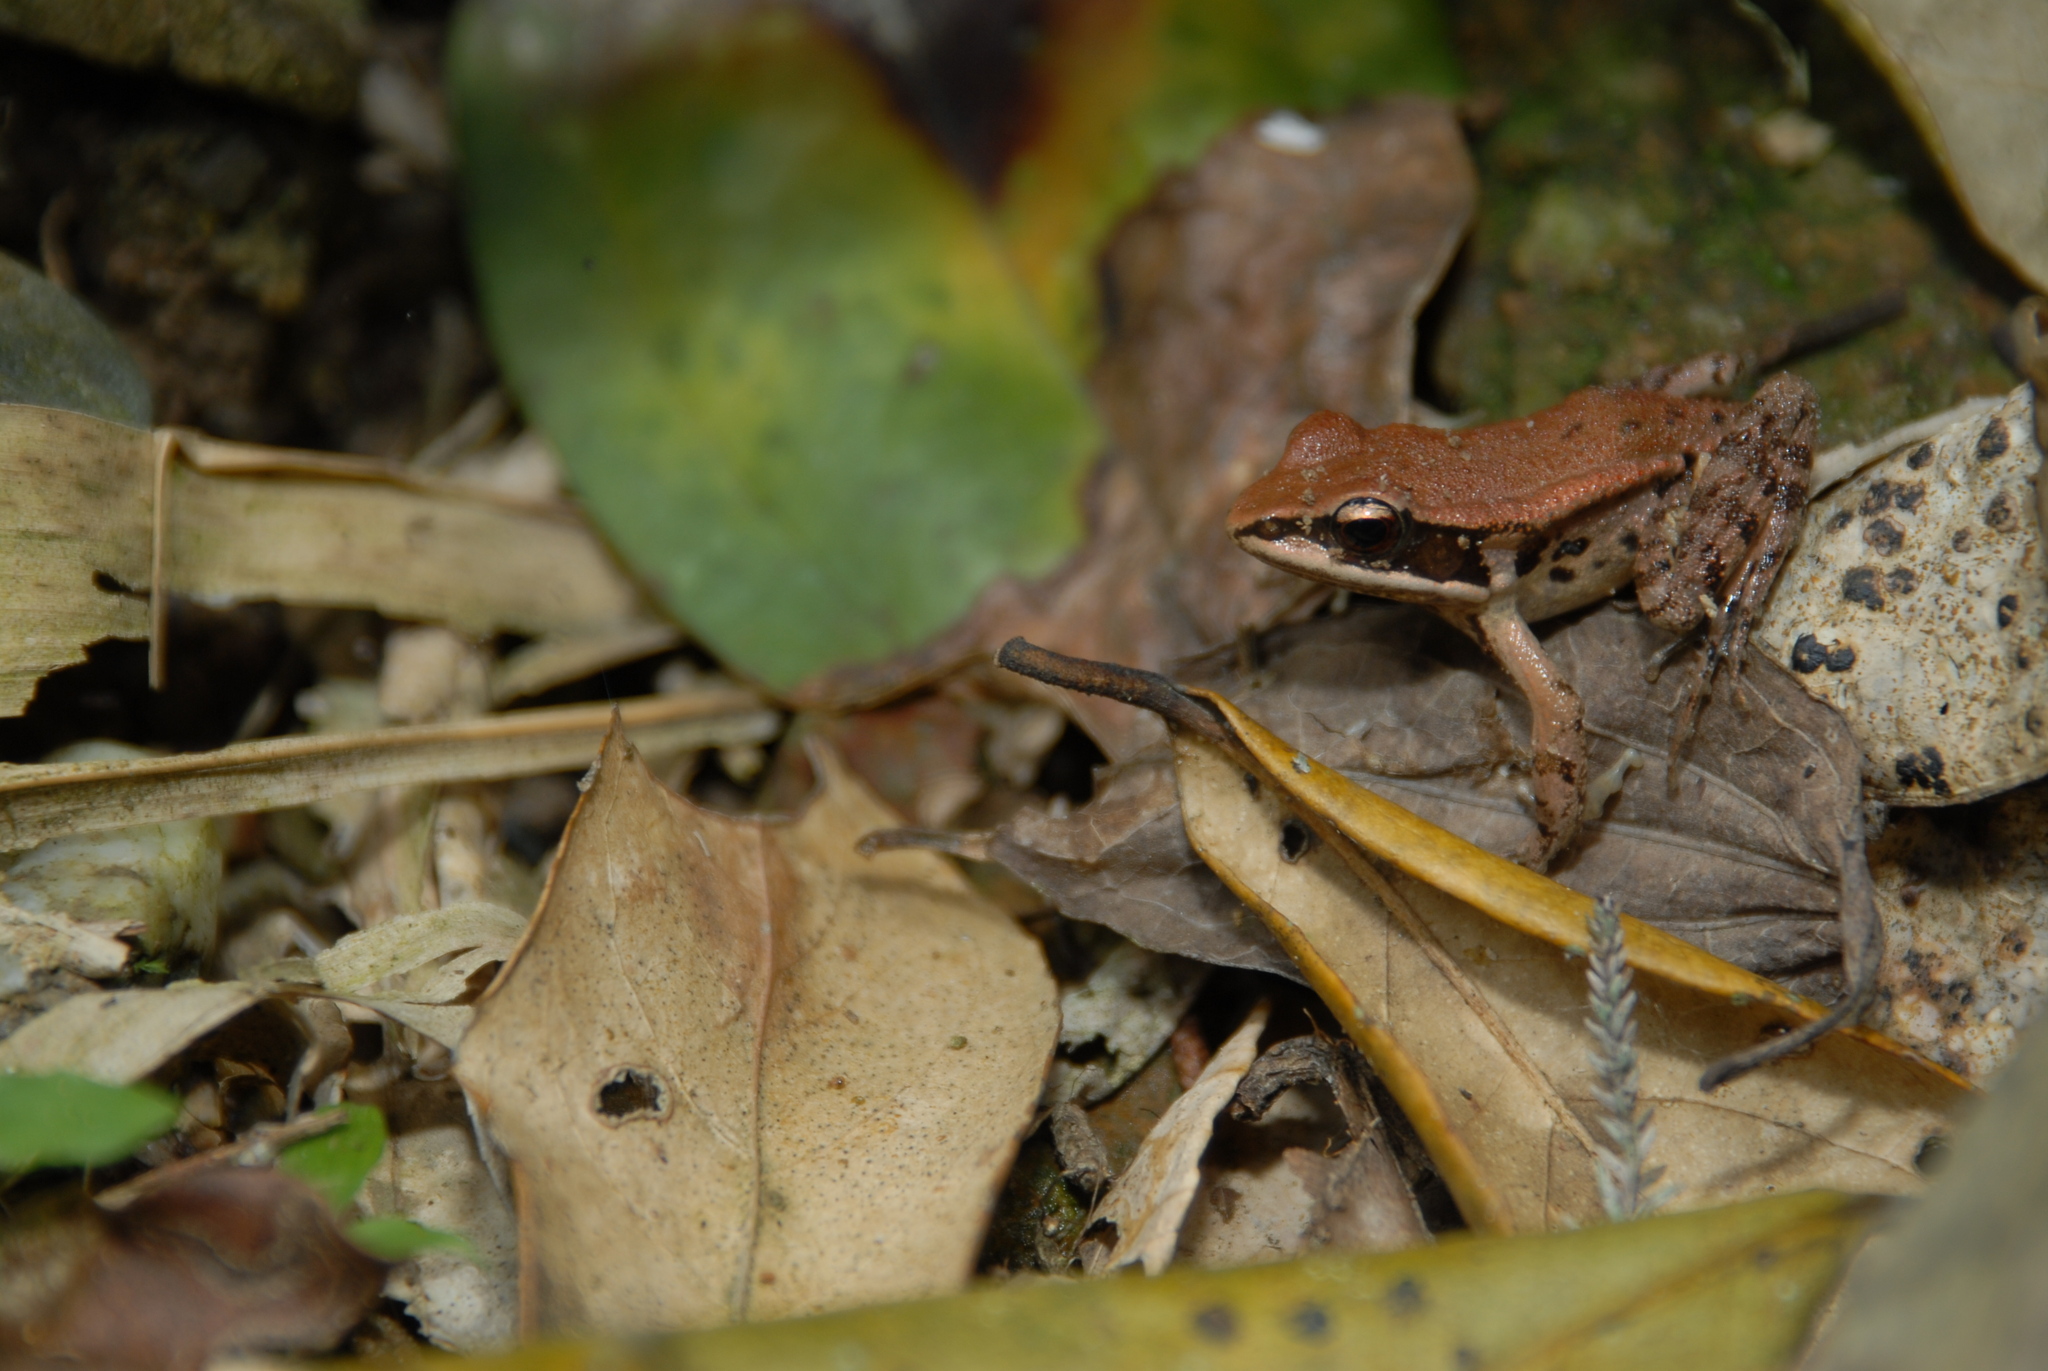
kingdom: Animalia
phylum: Chordata
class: Amphibia
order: Anura
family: Ranidae
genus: Hylarana
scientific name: Hylarana latouchii
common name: Broad-folded frog
